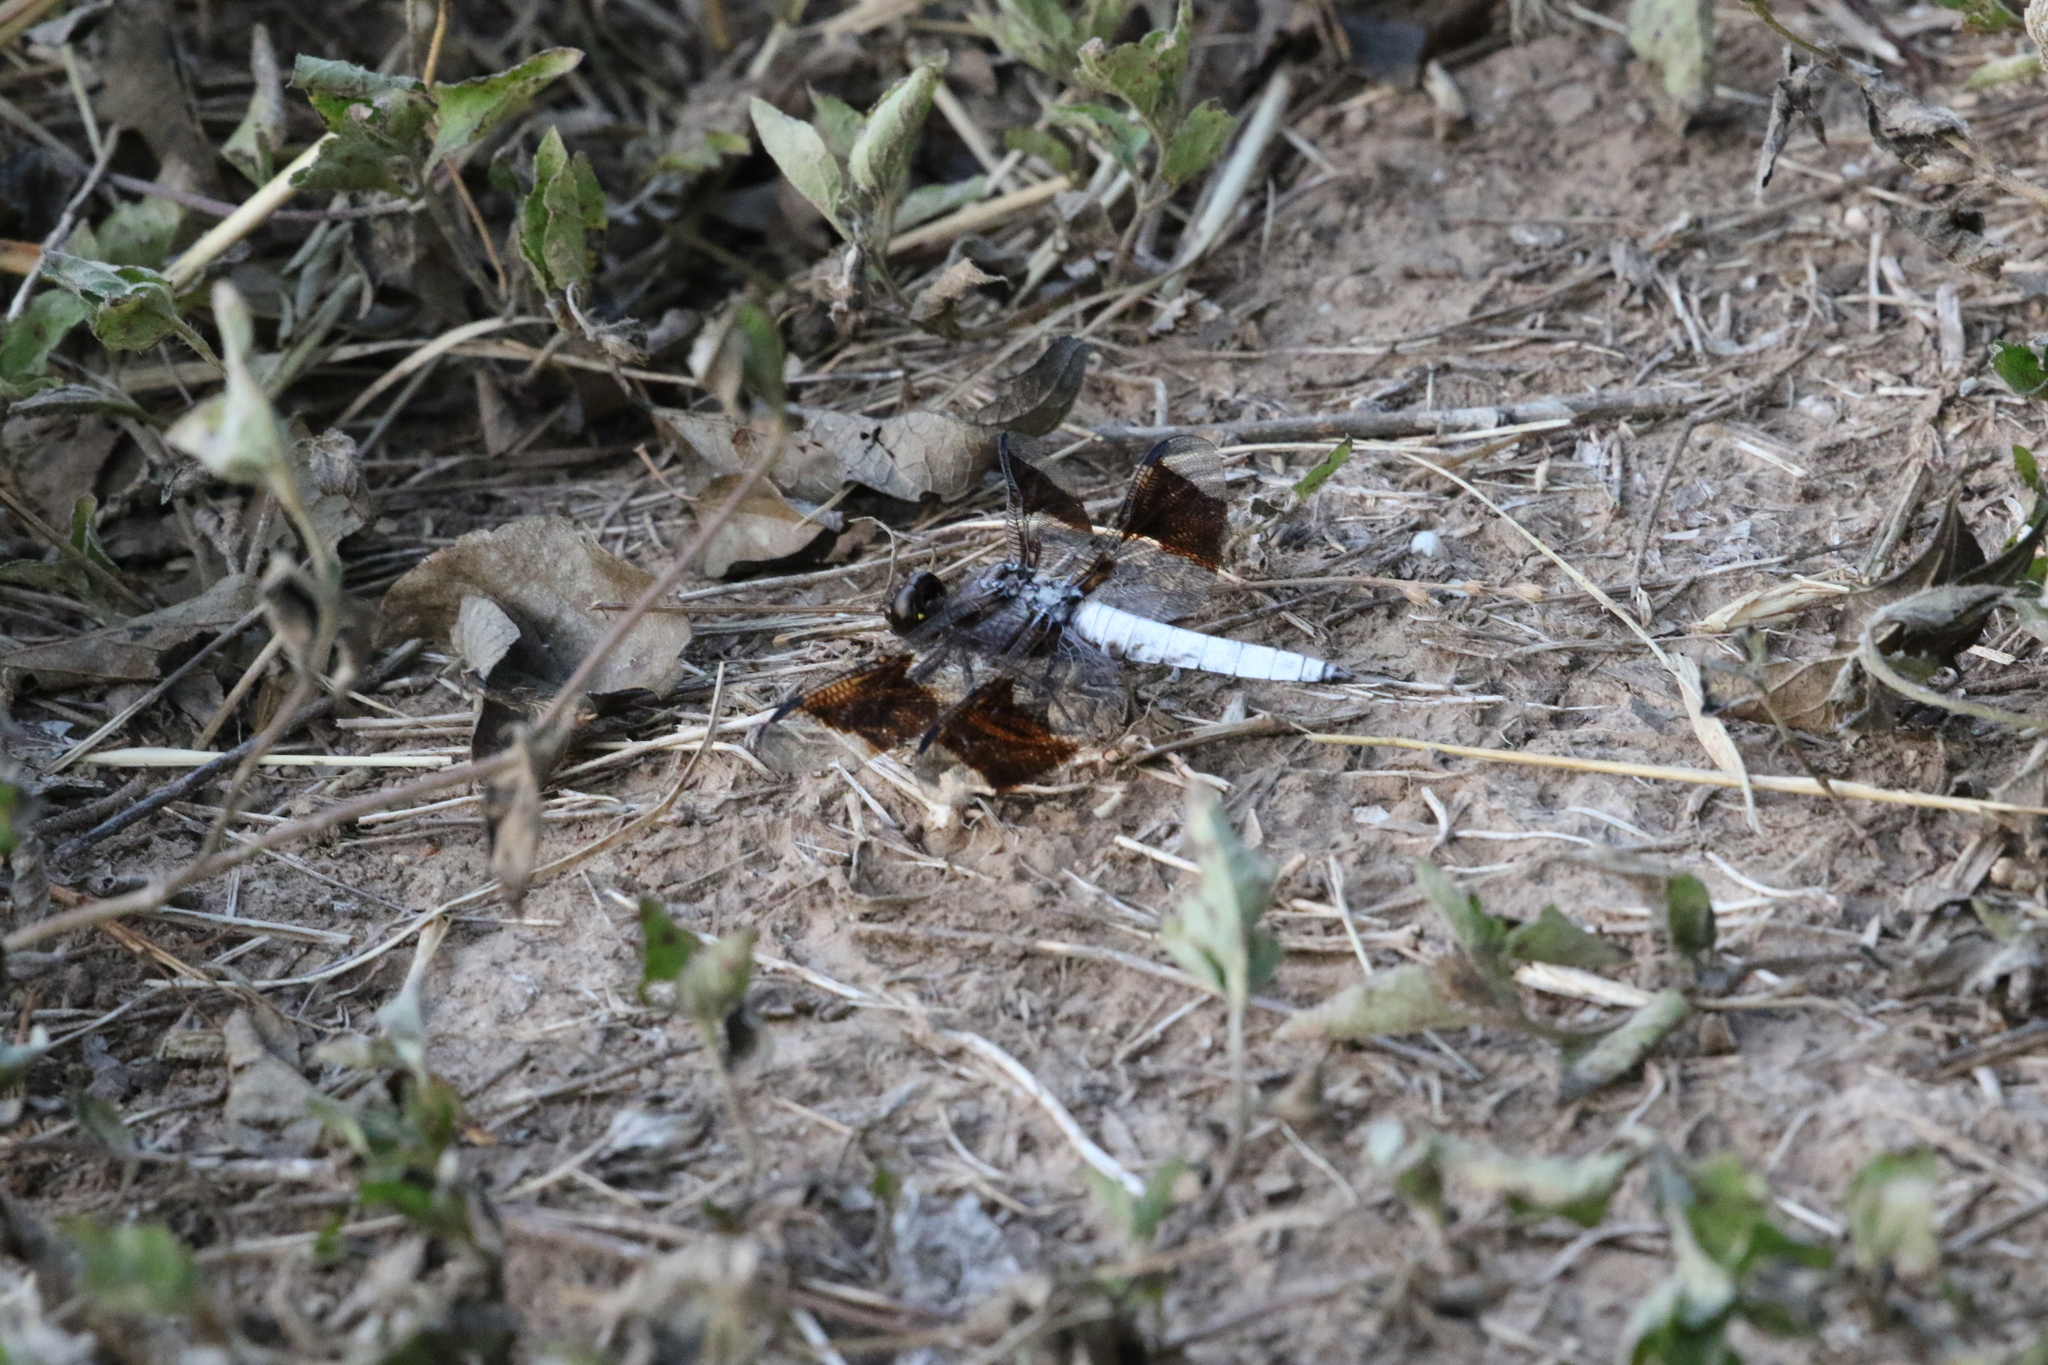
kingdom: Animalia
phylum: Arthropoda
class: Insecta
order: Odonata
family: Libellulidae
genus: Plathemis
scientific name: Plathemis lydia
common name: Common whitetail
